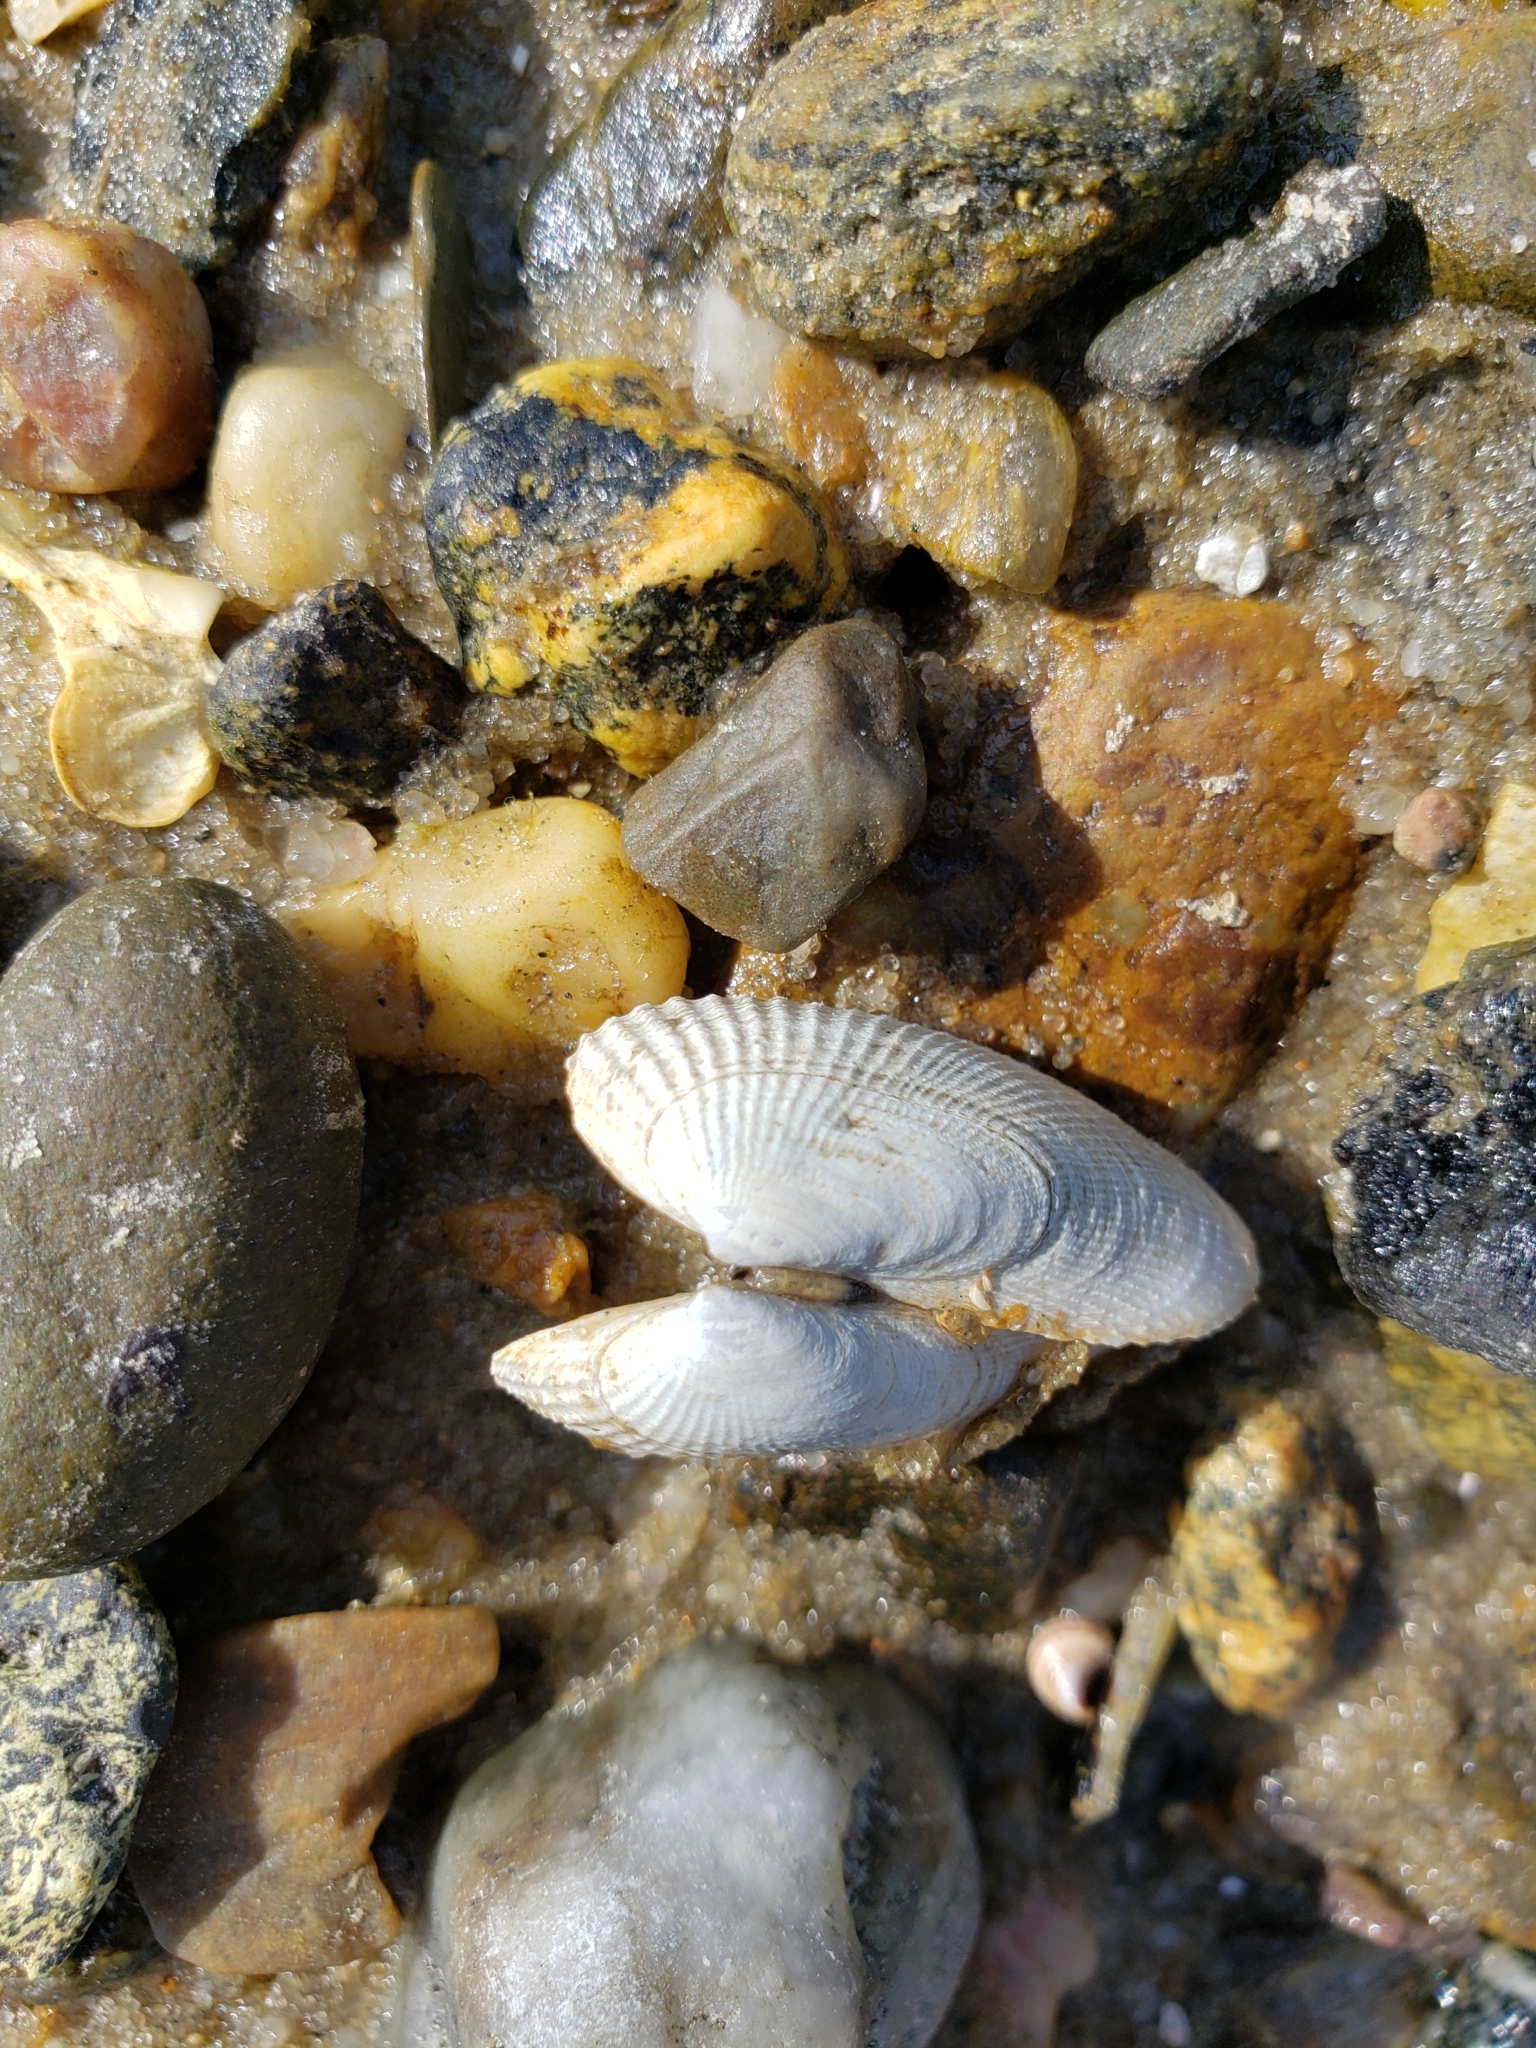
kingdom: Animalia
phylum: Mollusca
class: Bivalvia
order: Venerida
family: Veneridae
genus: Petricolaria
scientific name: Petricolaria pholadiformis
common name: American piddock
